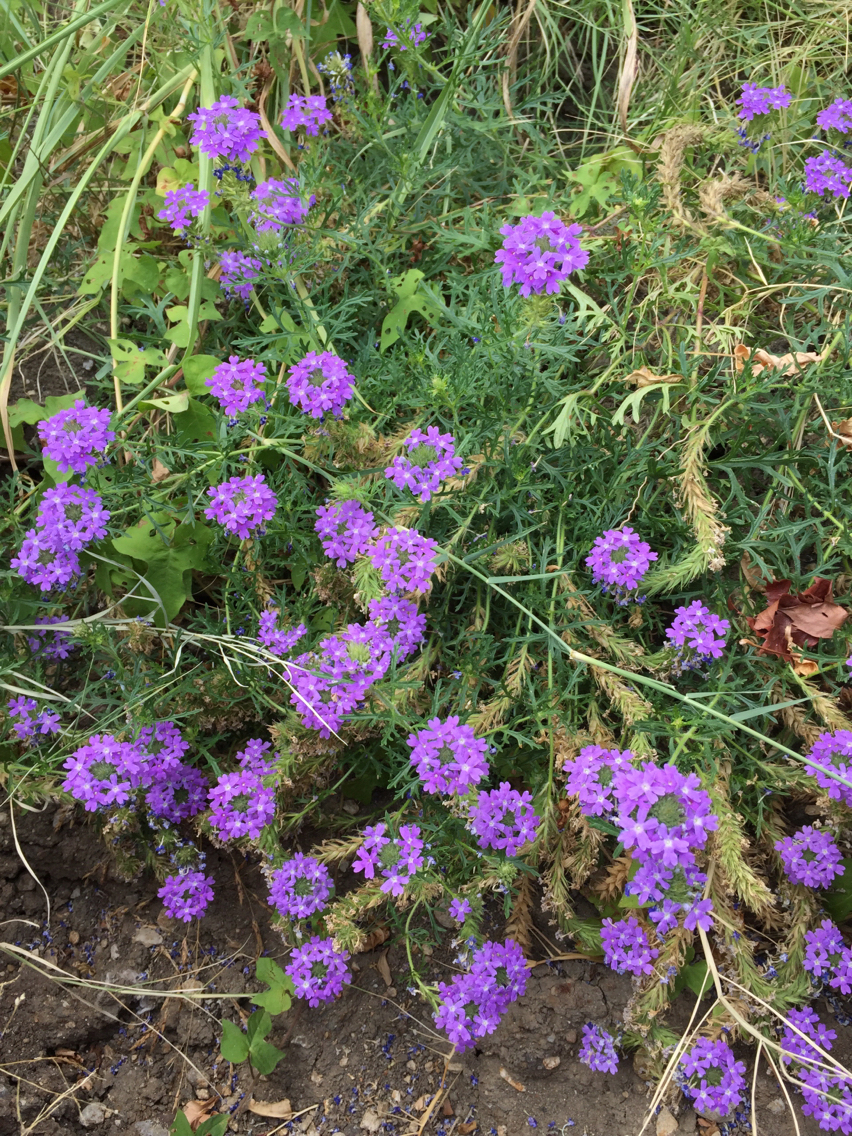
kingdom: Plantae
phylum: Tracheophyta
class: Magnoliopsida
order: Lamiales
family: Verbenaceae
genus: Verbena
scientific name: Verbena bipinnatifida
